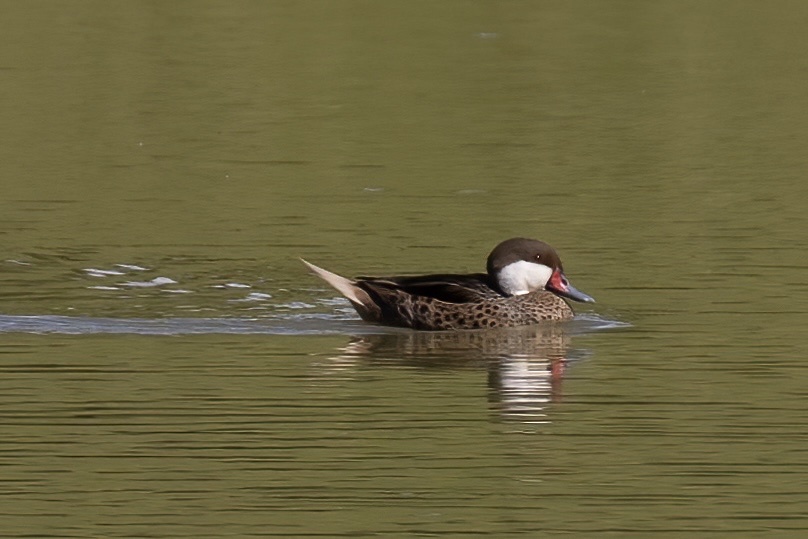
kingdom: Animalia
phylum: Chordata
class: Aves
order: Anseriformes
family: Anatidae
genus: Anas
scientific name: Anas bahamensis
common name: White-cheeked pintail
